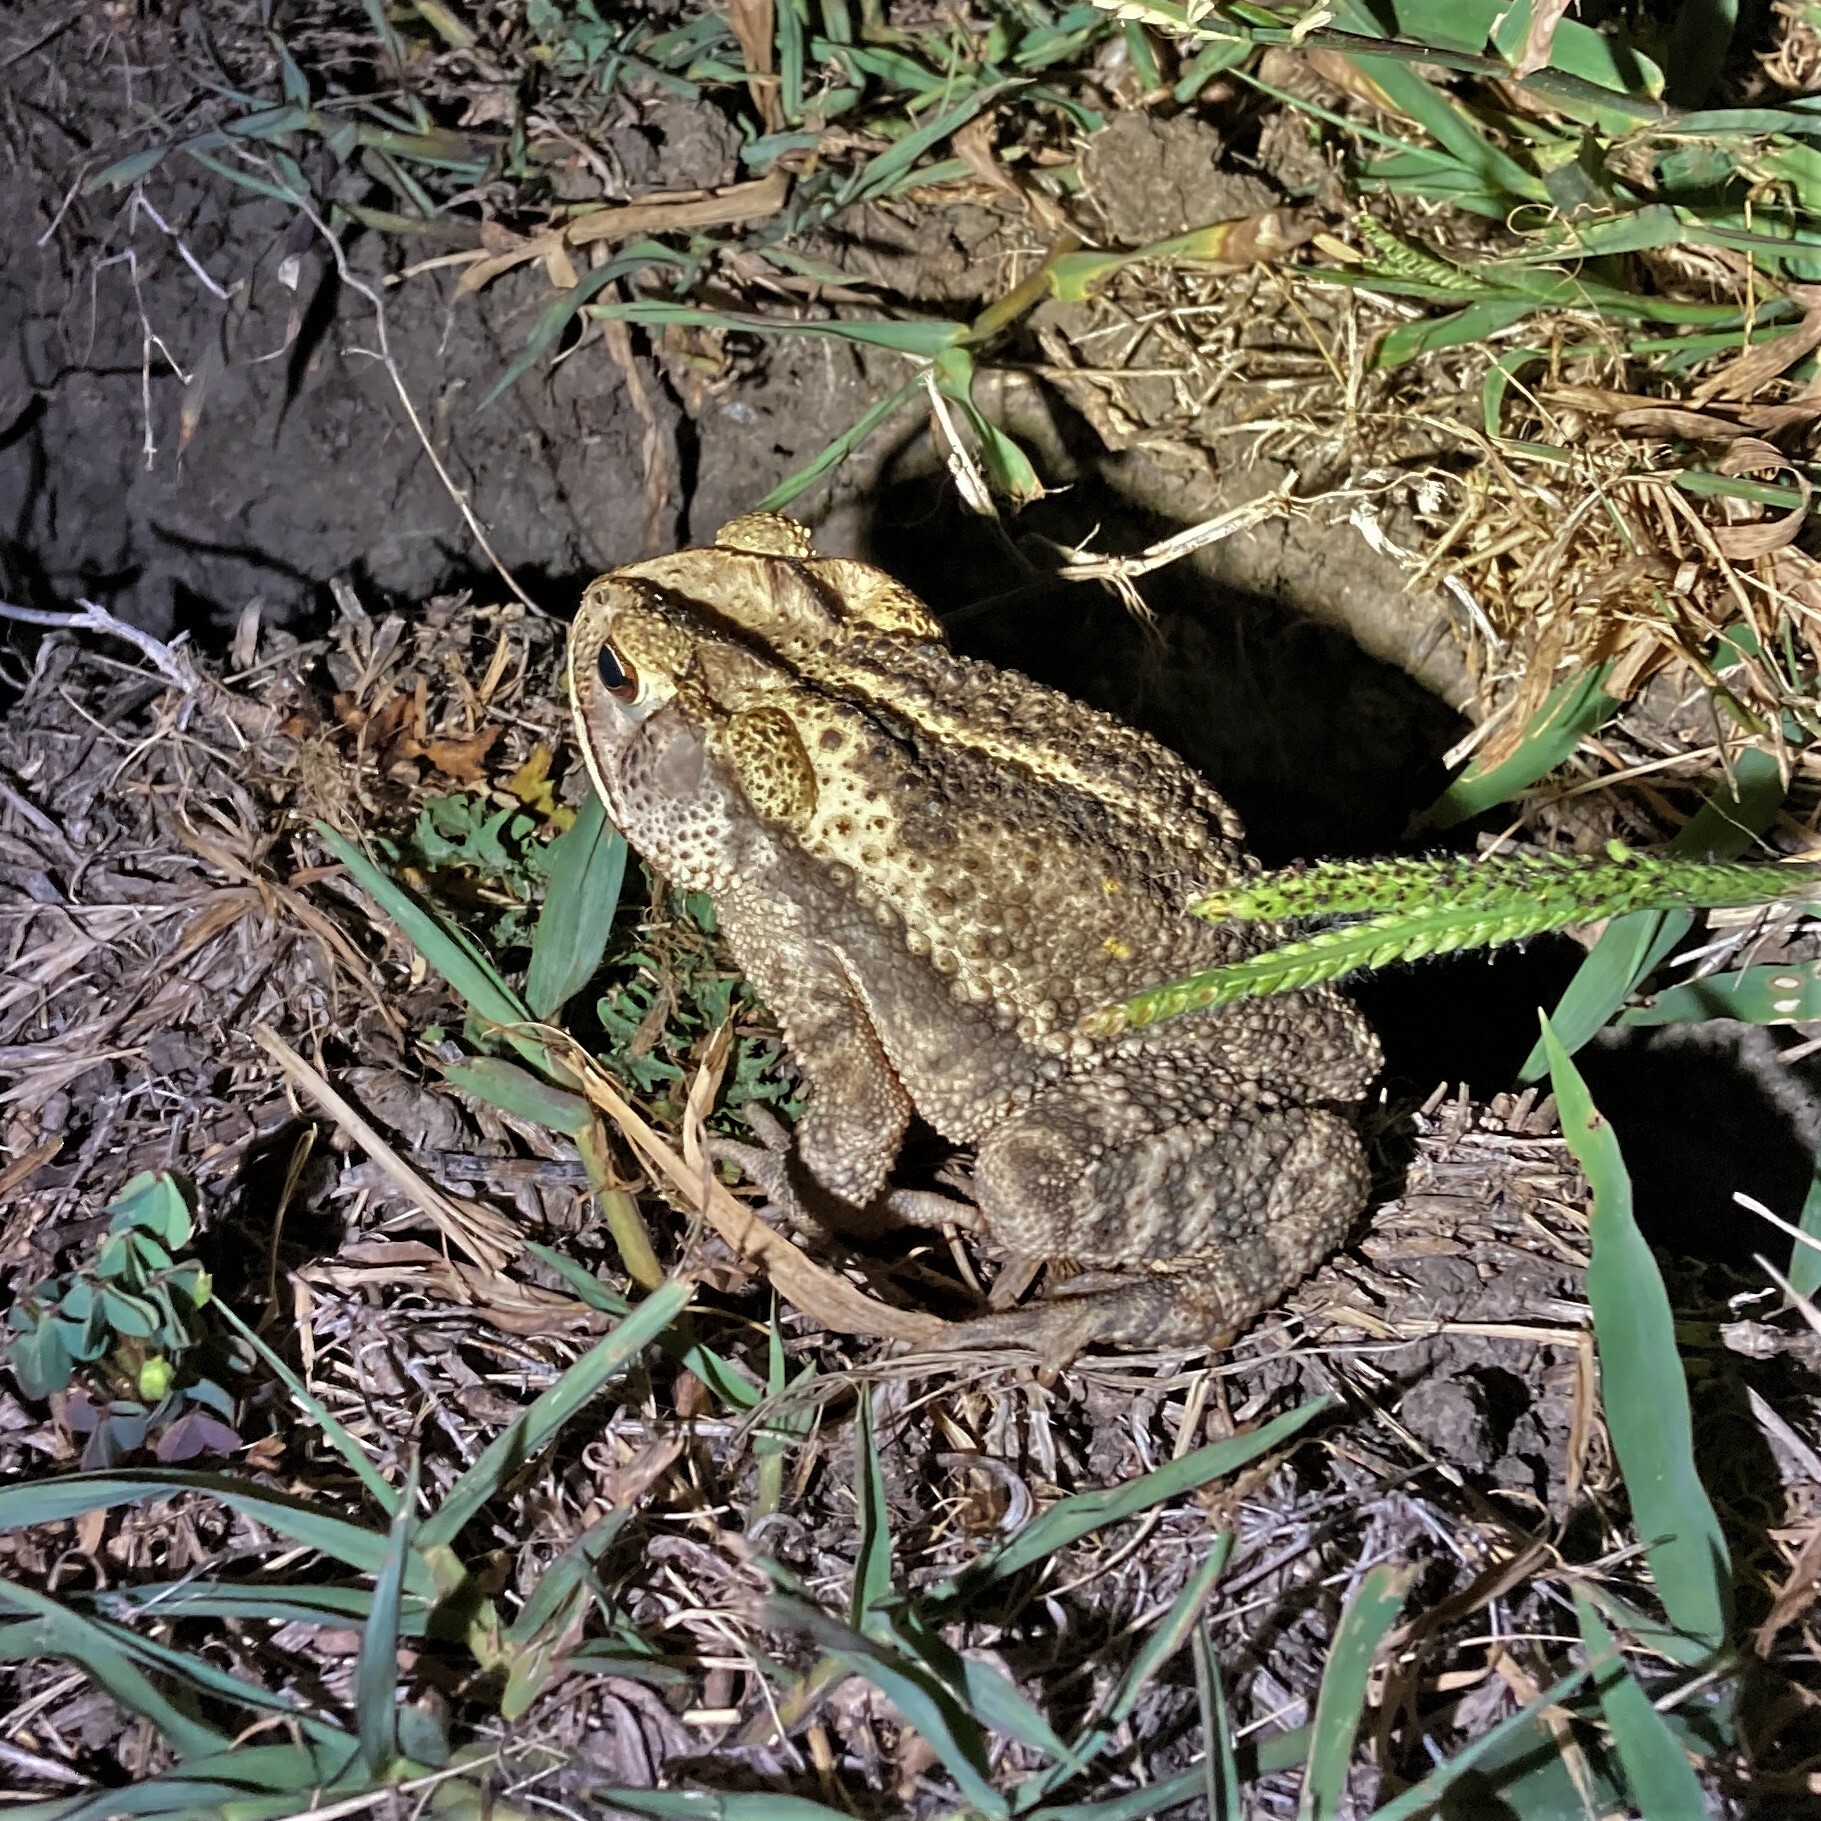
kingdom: Animalia
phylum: Chordata
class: Amphibia
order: Anura
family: Bufonidae
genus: Incilius
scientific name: Incilius nebulifer
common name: Gulf coast toad
